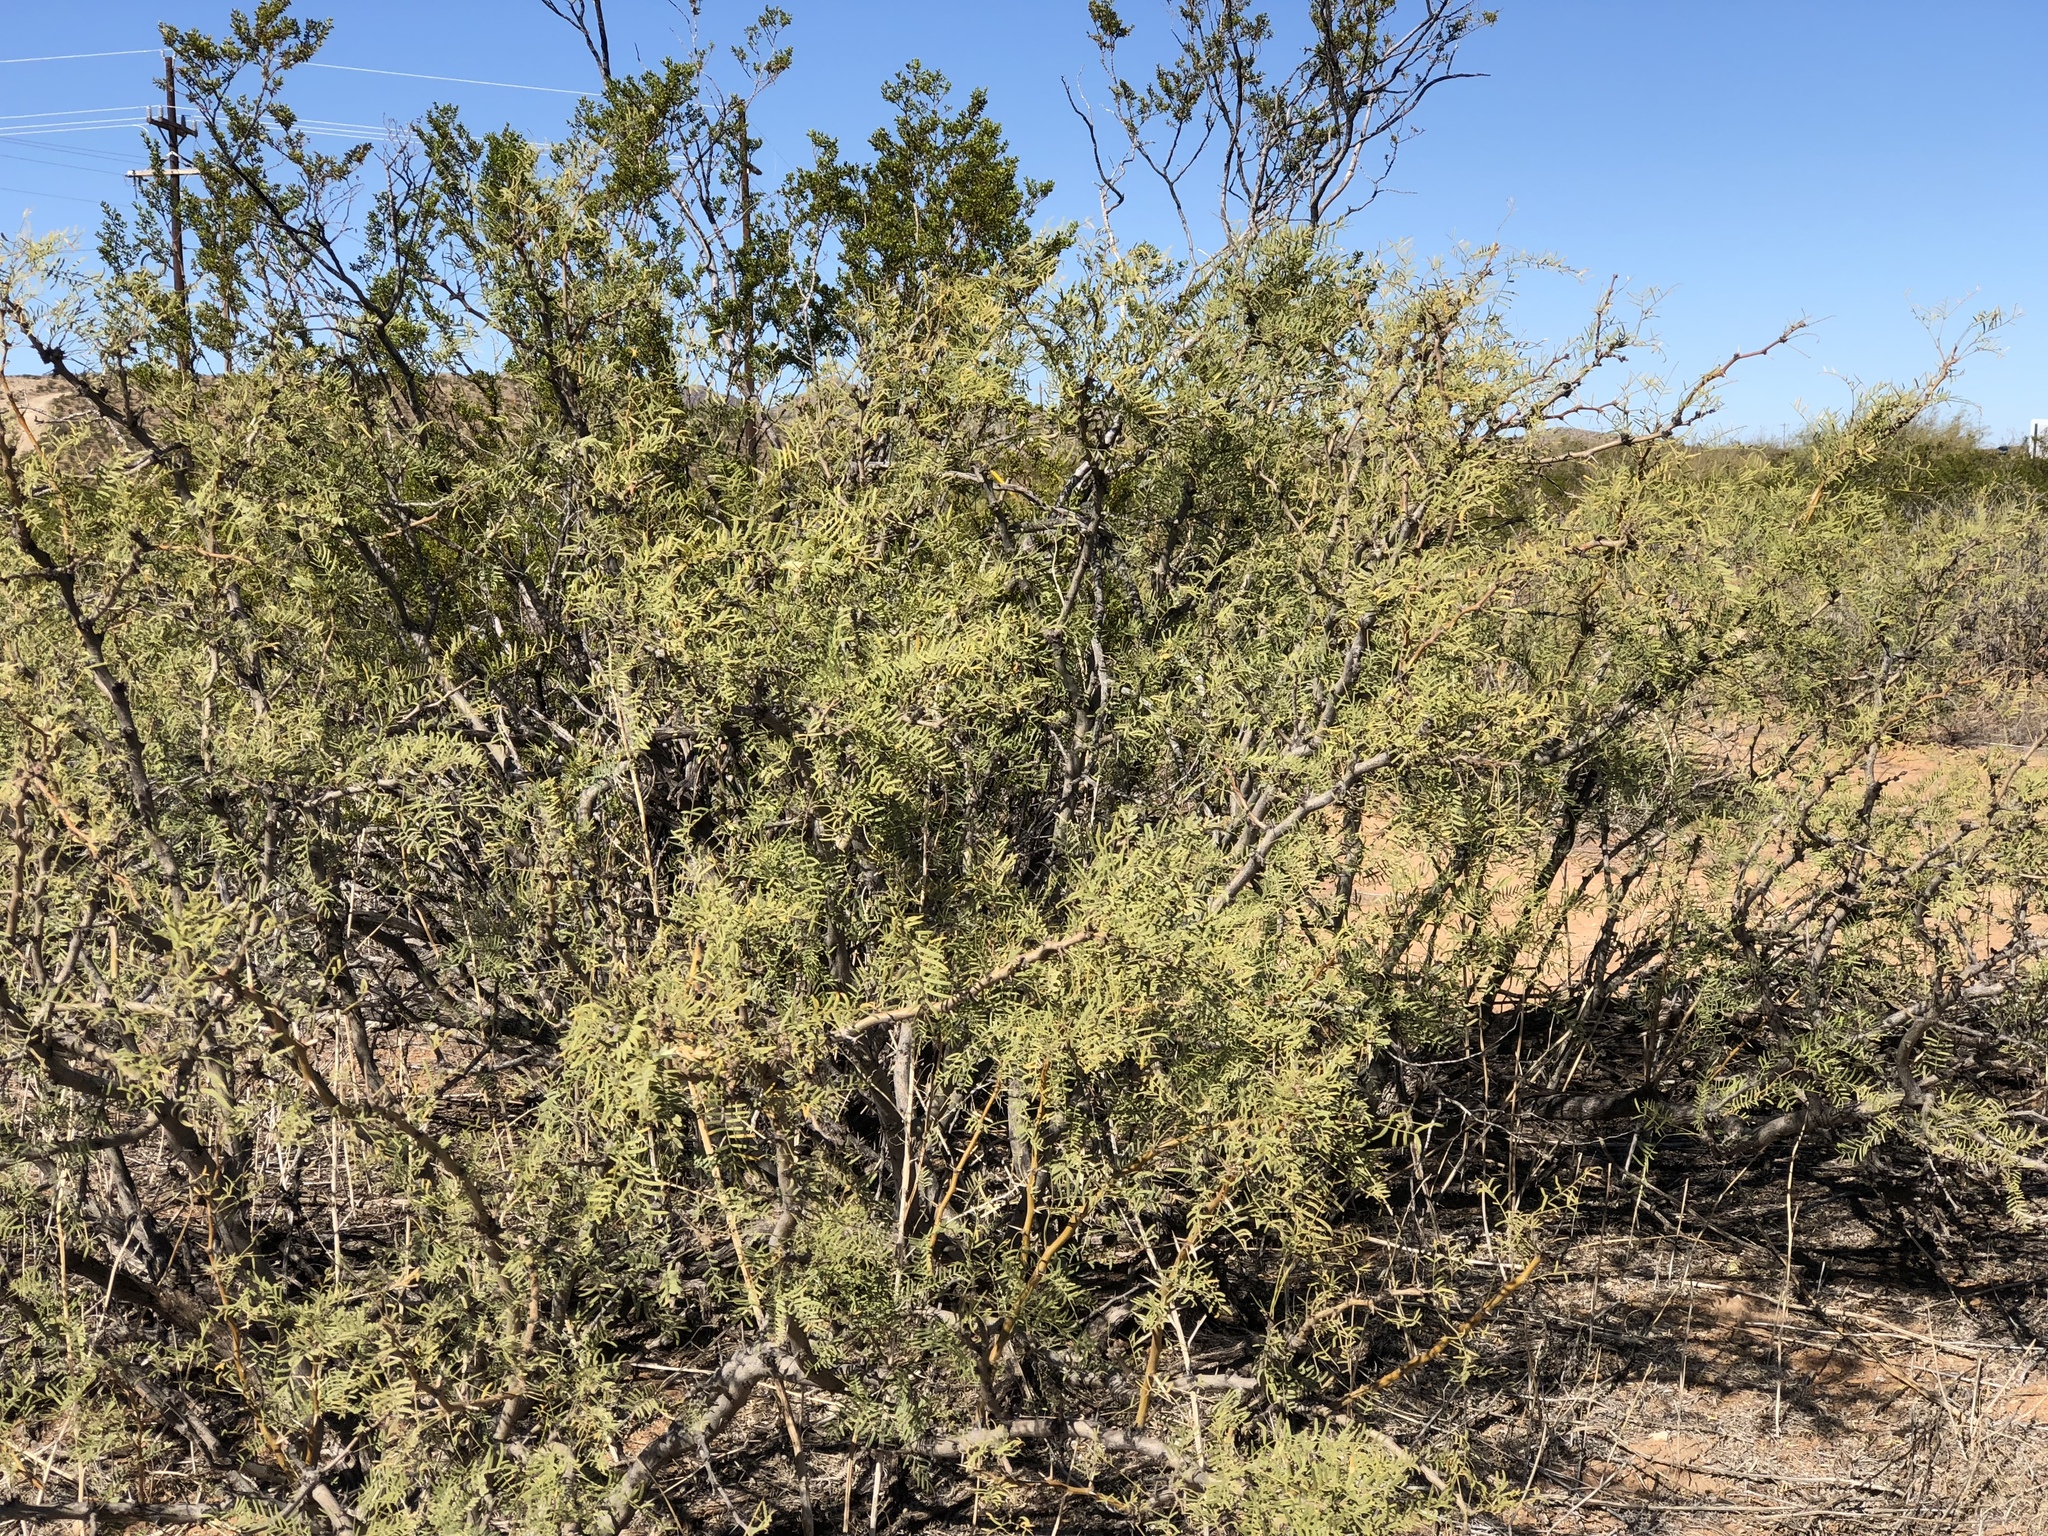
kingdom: Plantae
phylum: Tracheophyta
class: Magnoliopsida
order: Fabales
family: Fabaceae
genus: Prosopis
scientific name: Prosopis glandulosa
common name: Honey mesquite
